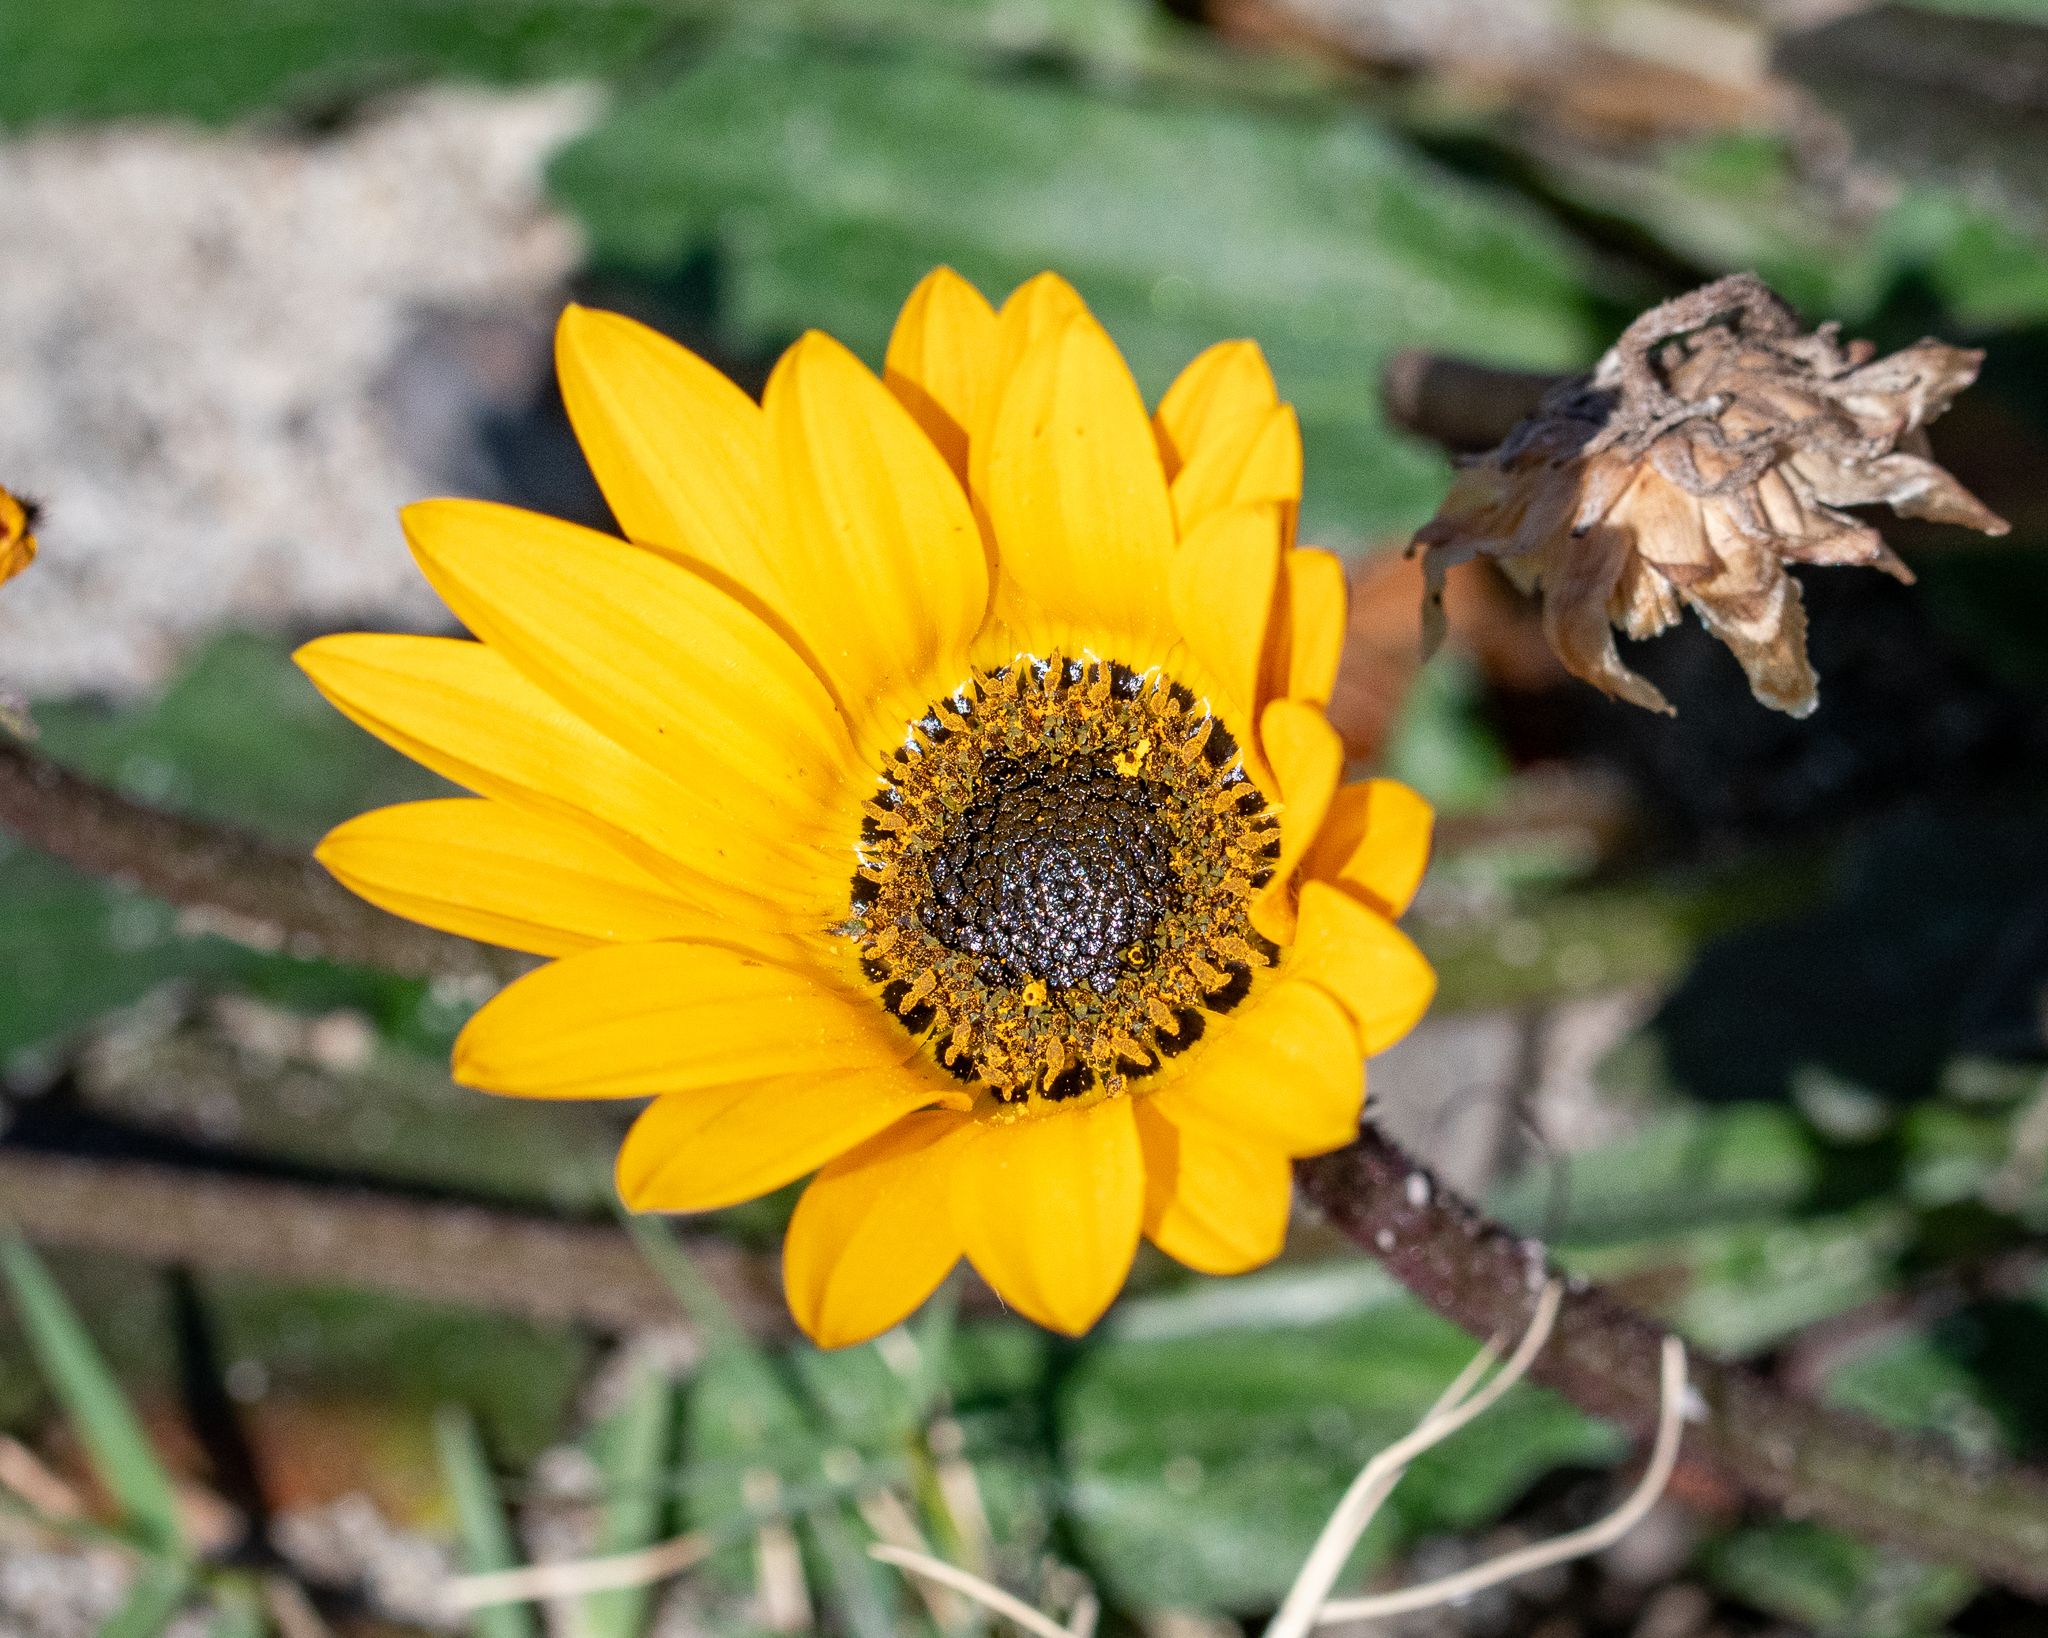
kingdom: Plantae
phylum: Tracheophyta
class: Magnoliopsida
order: Asterales
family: Asteraceae
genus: Arctotis
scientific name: Arctotis acaulis
